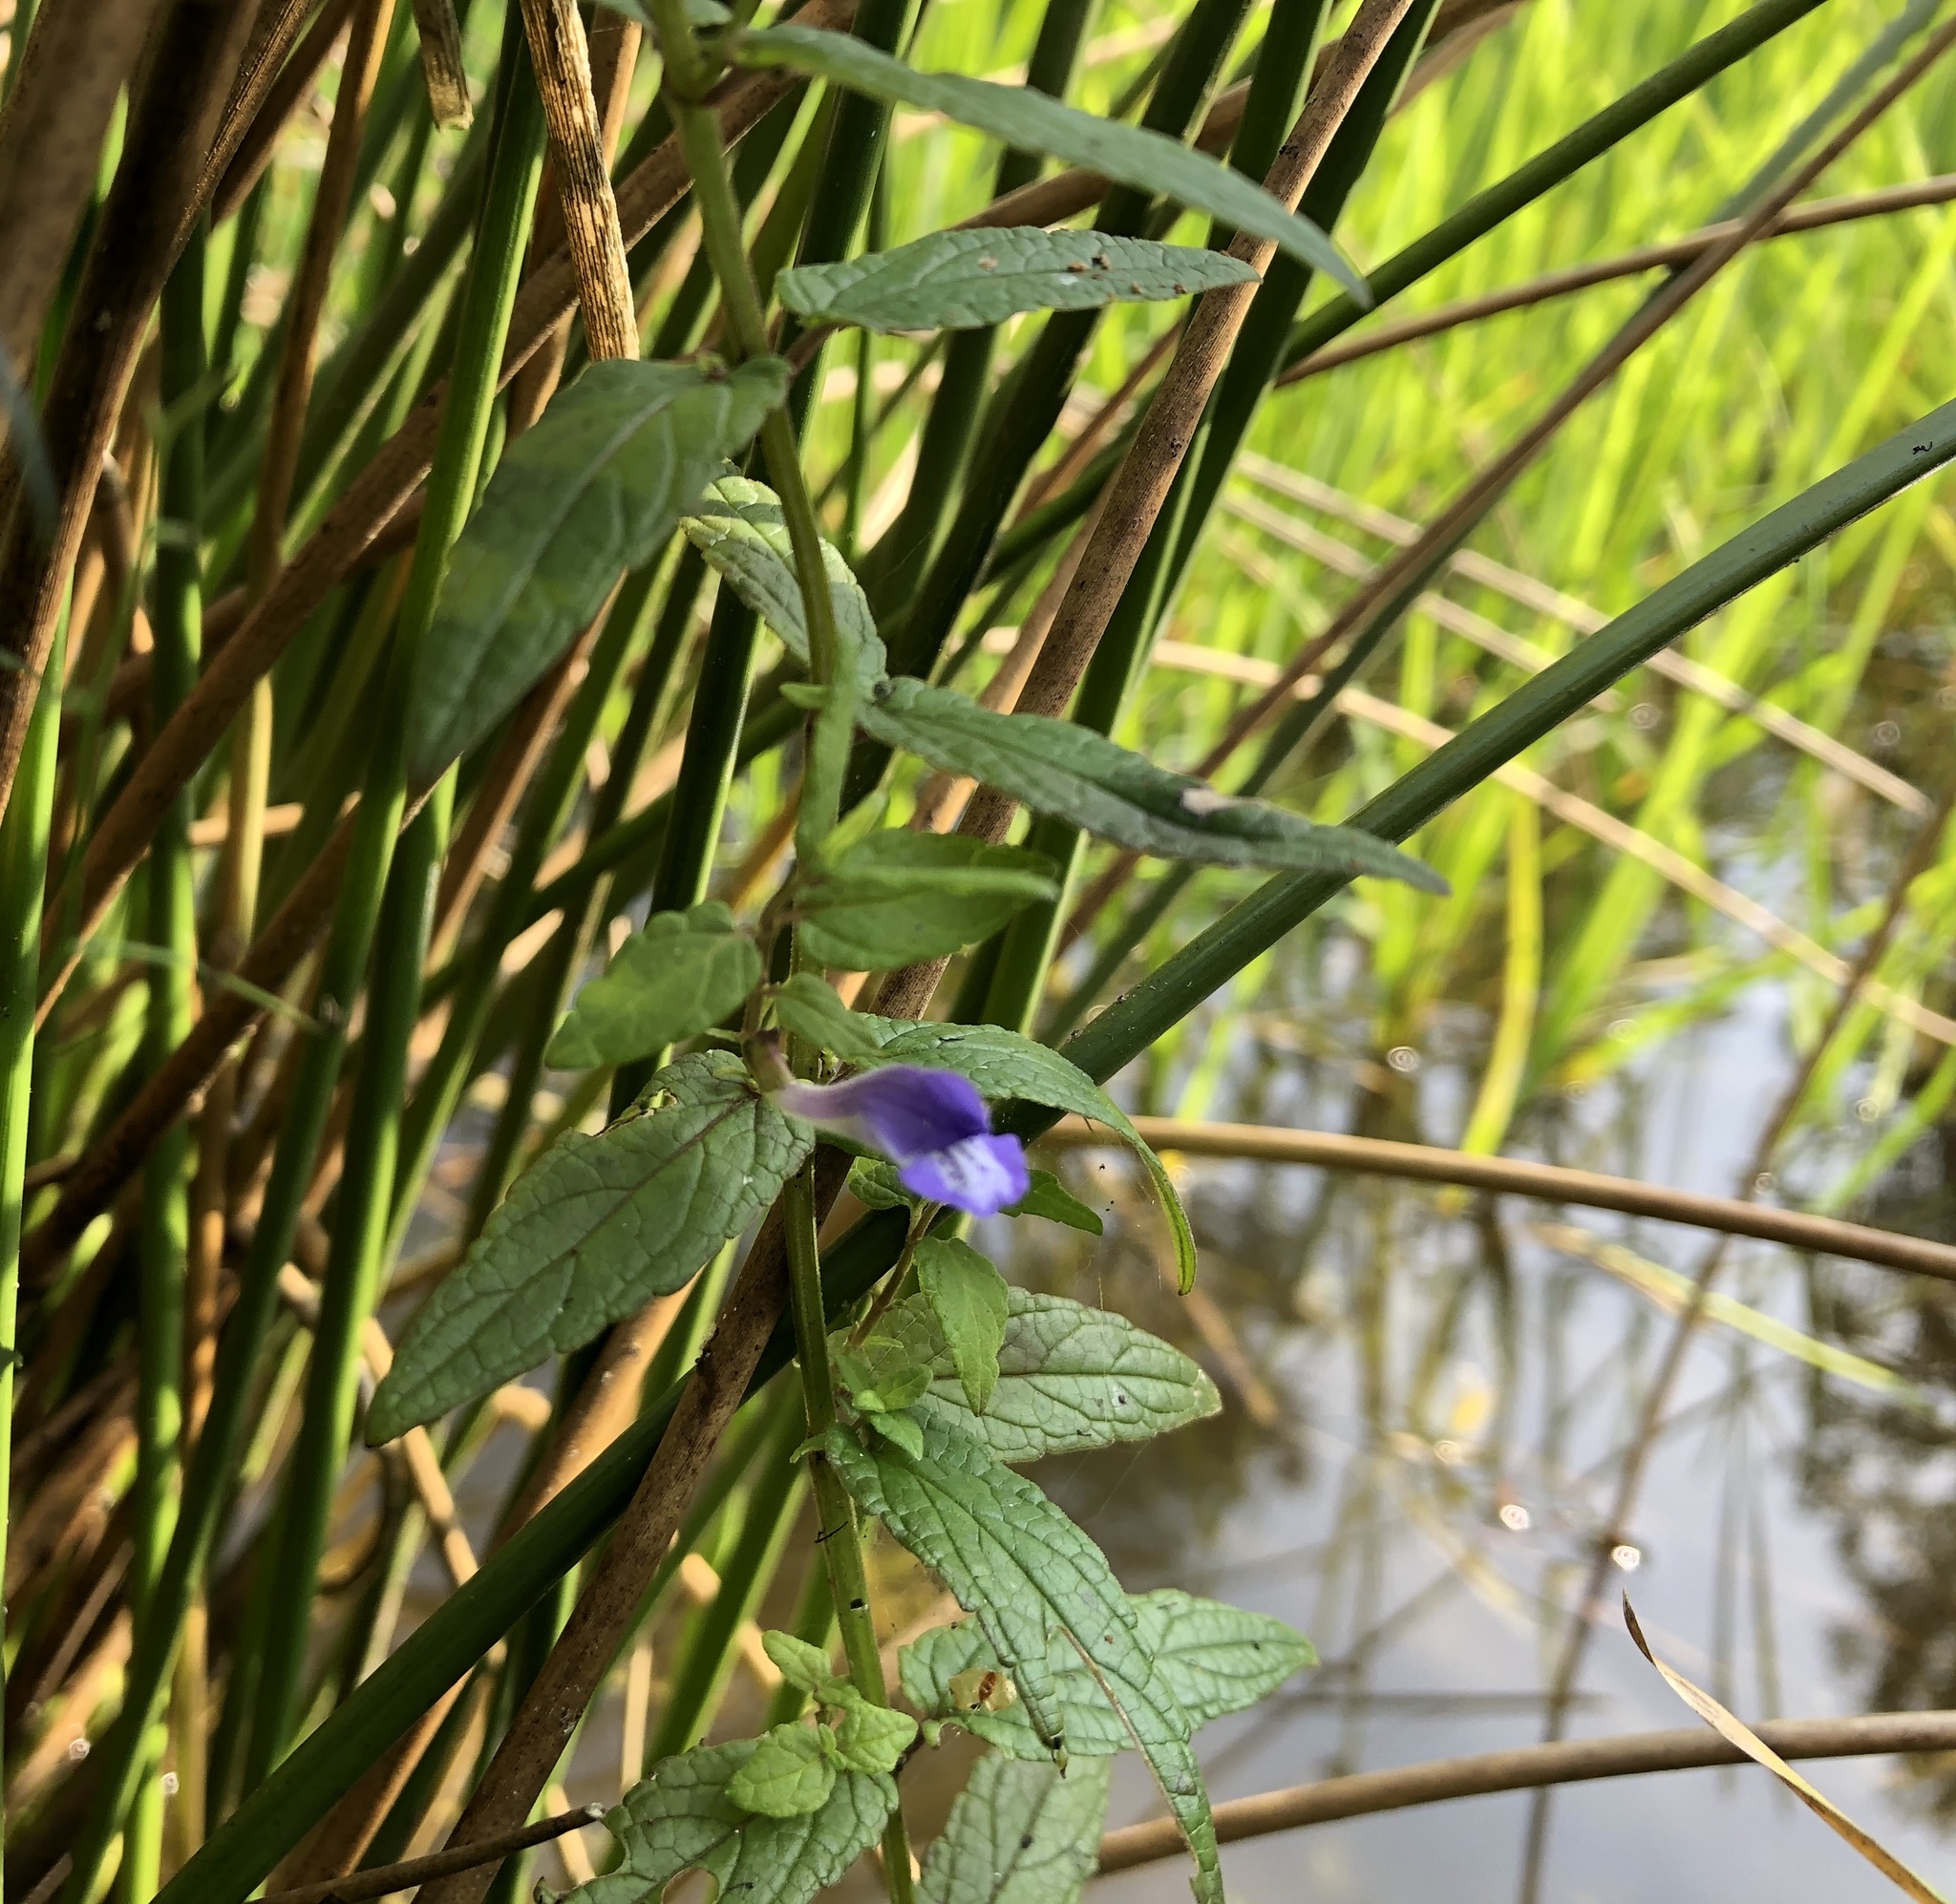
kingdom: Plantae
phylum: Tracheophyta
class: Magnoliopsida
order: Lamiales
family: Lamiaceae
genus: Scutellaria
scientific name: Scutellaria galericulata
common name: Skullcap
